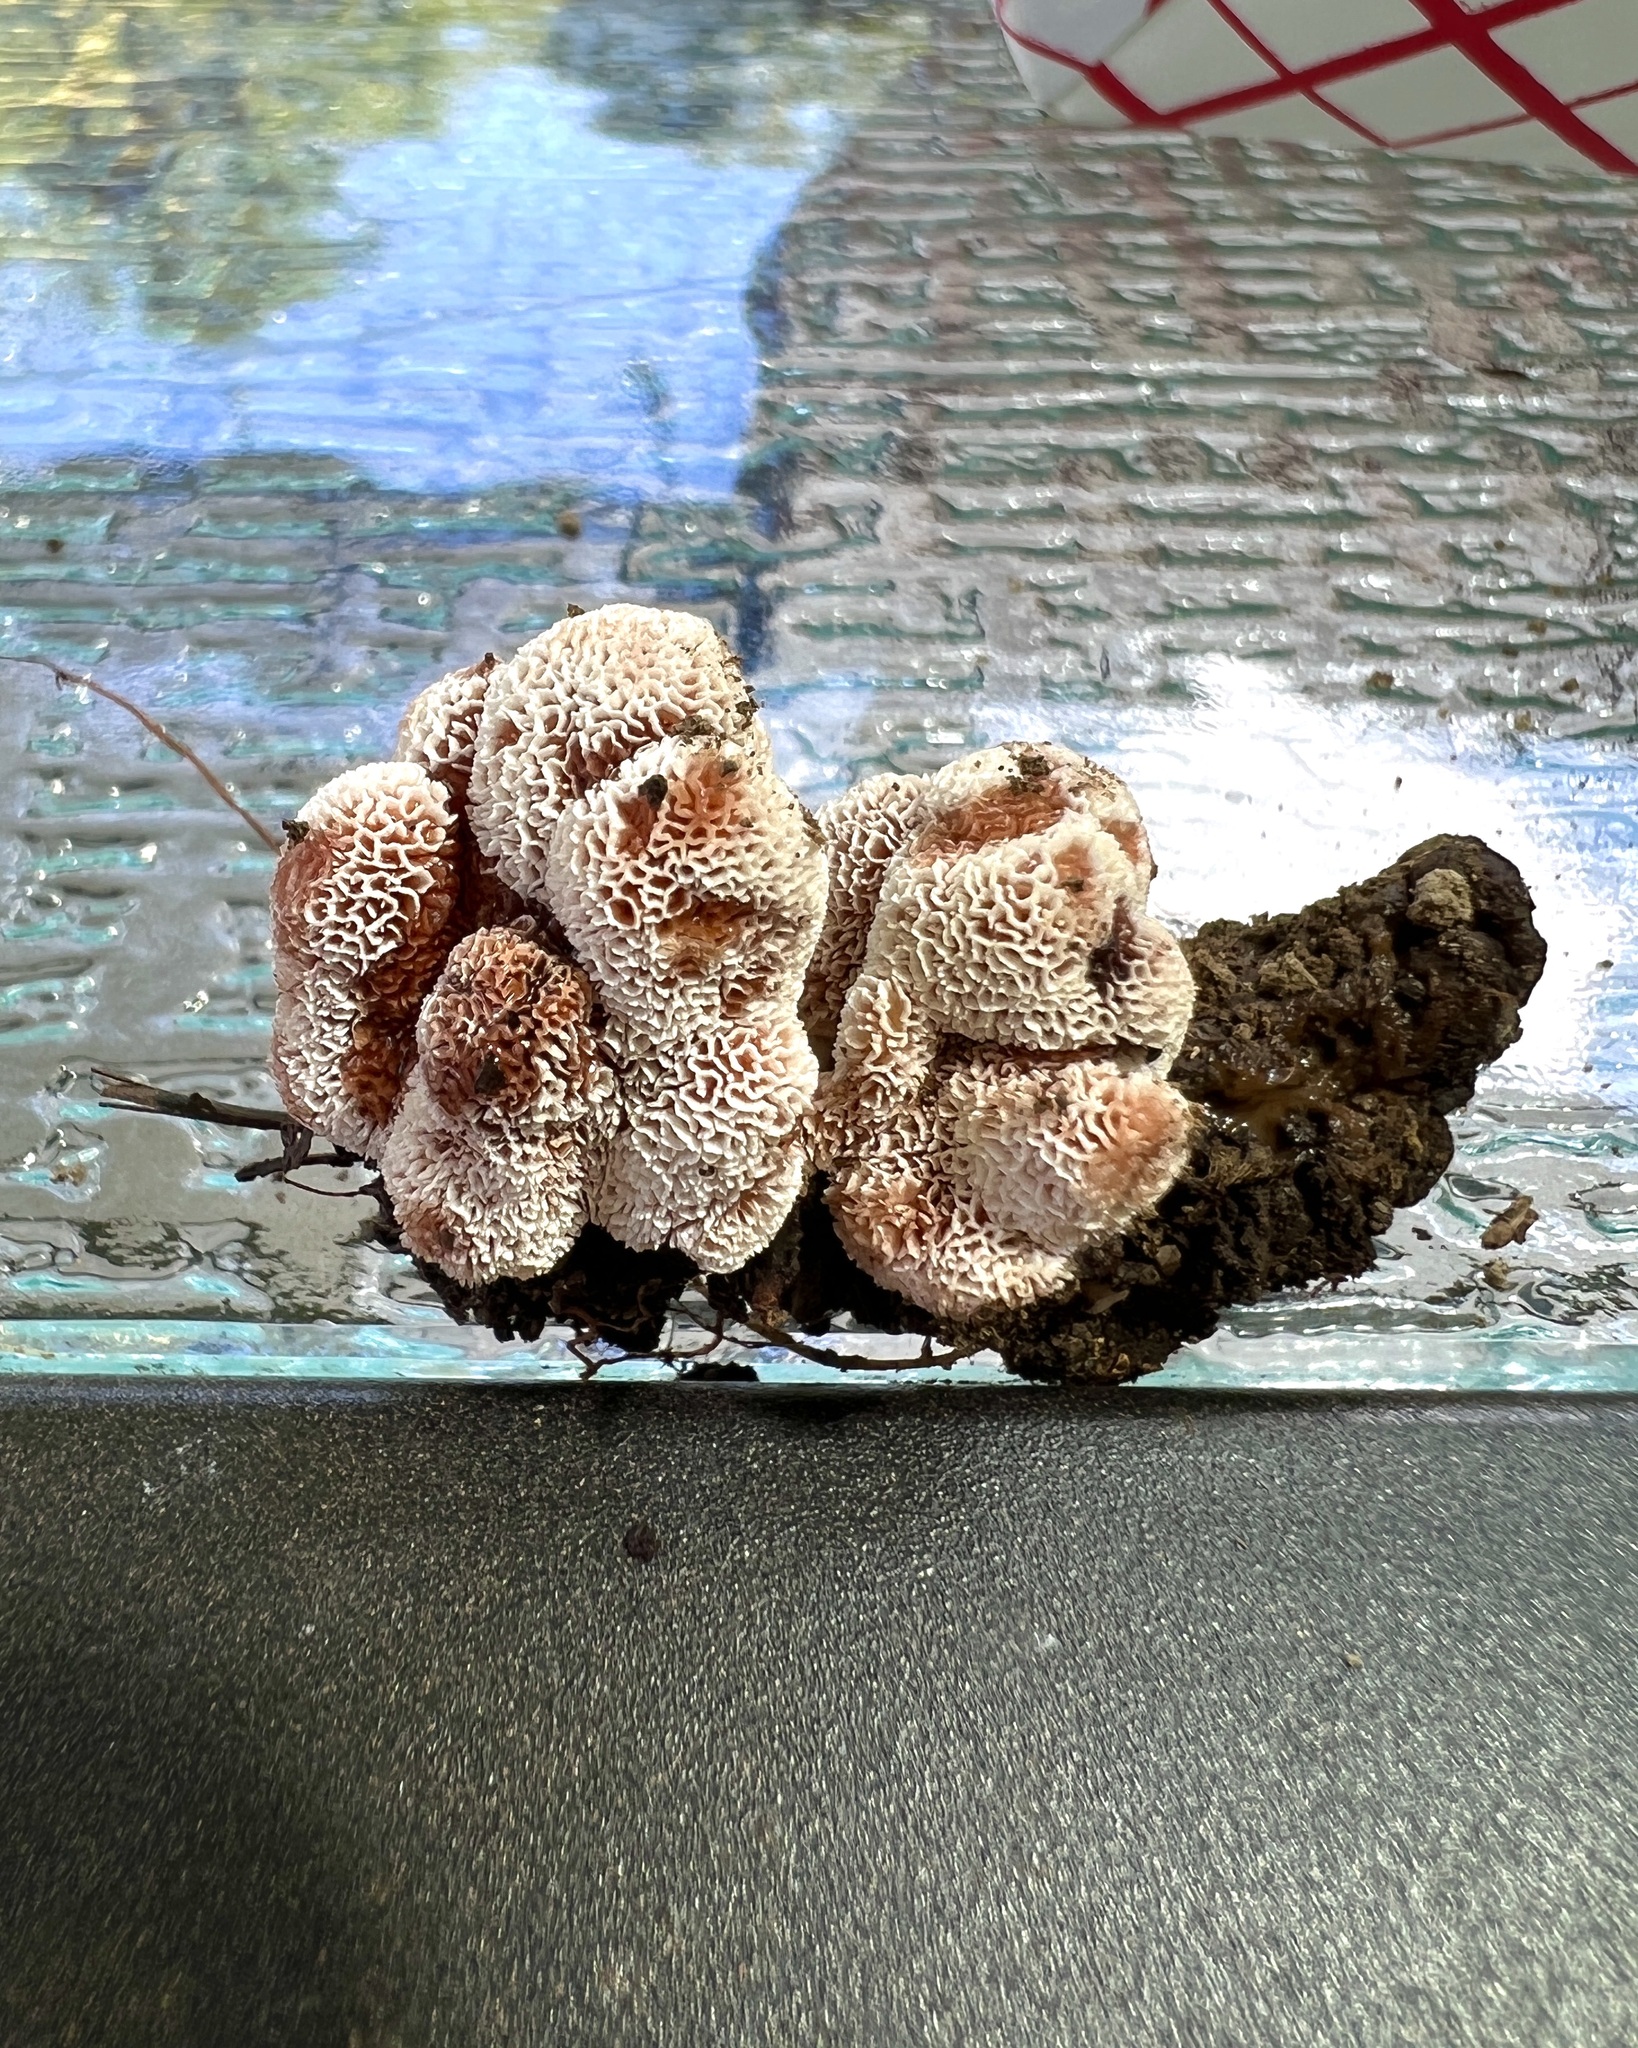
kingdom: Fungi
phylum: Basidiomycota
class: Agaricomycetes
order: Polyporales
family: Podoscyphaceae
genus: Abortiporus
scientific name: Abortiporus biennis
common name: Blushing rosette
